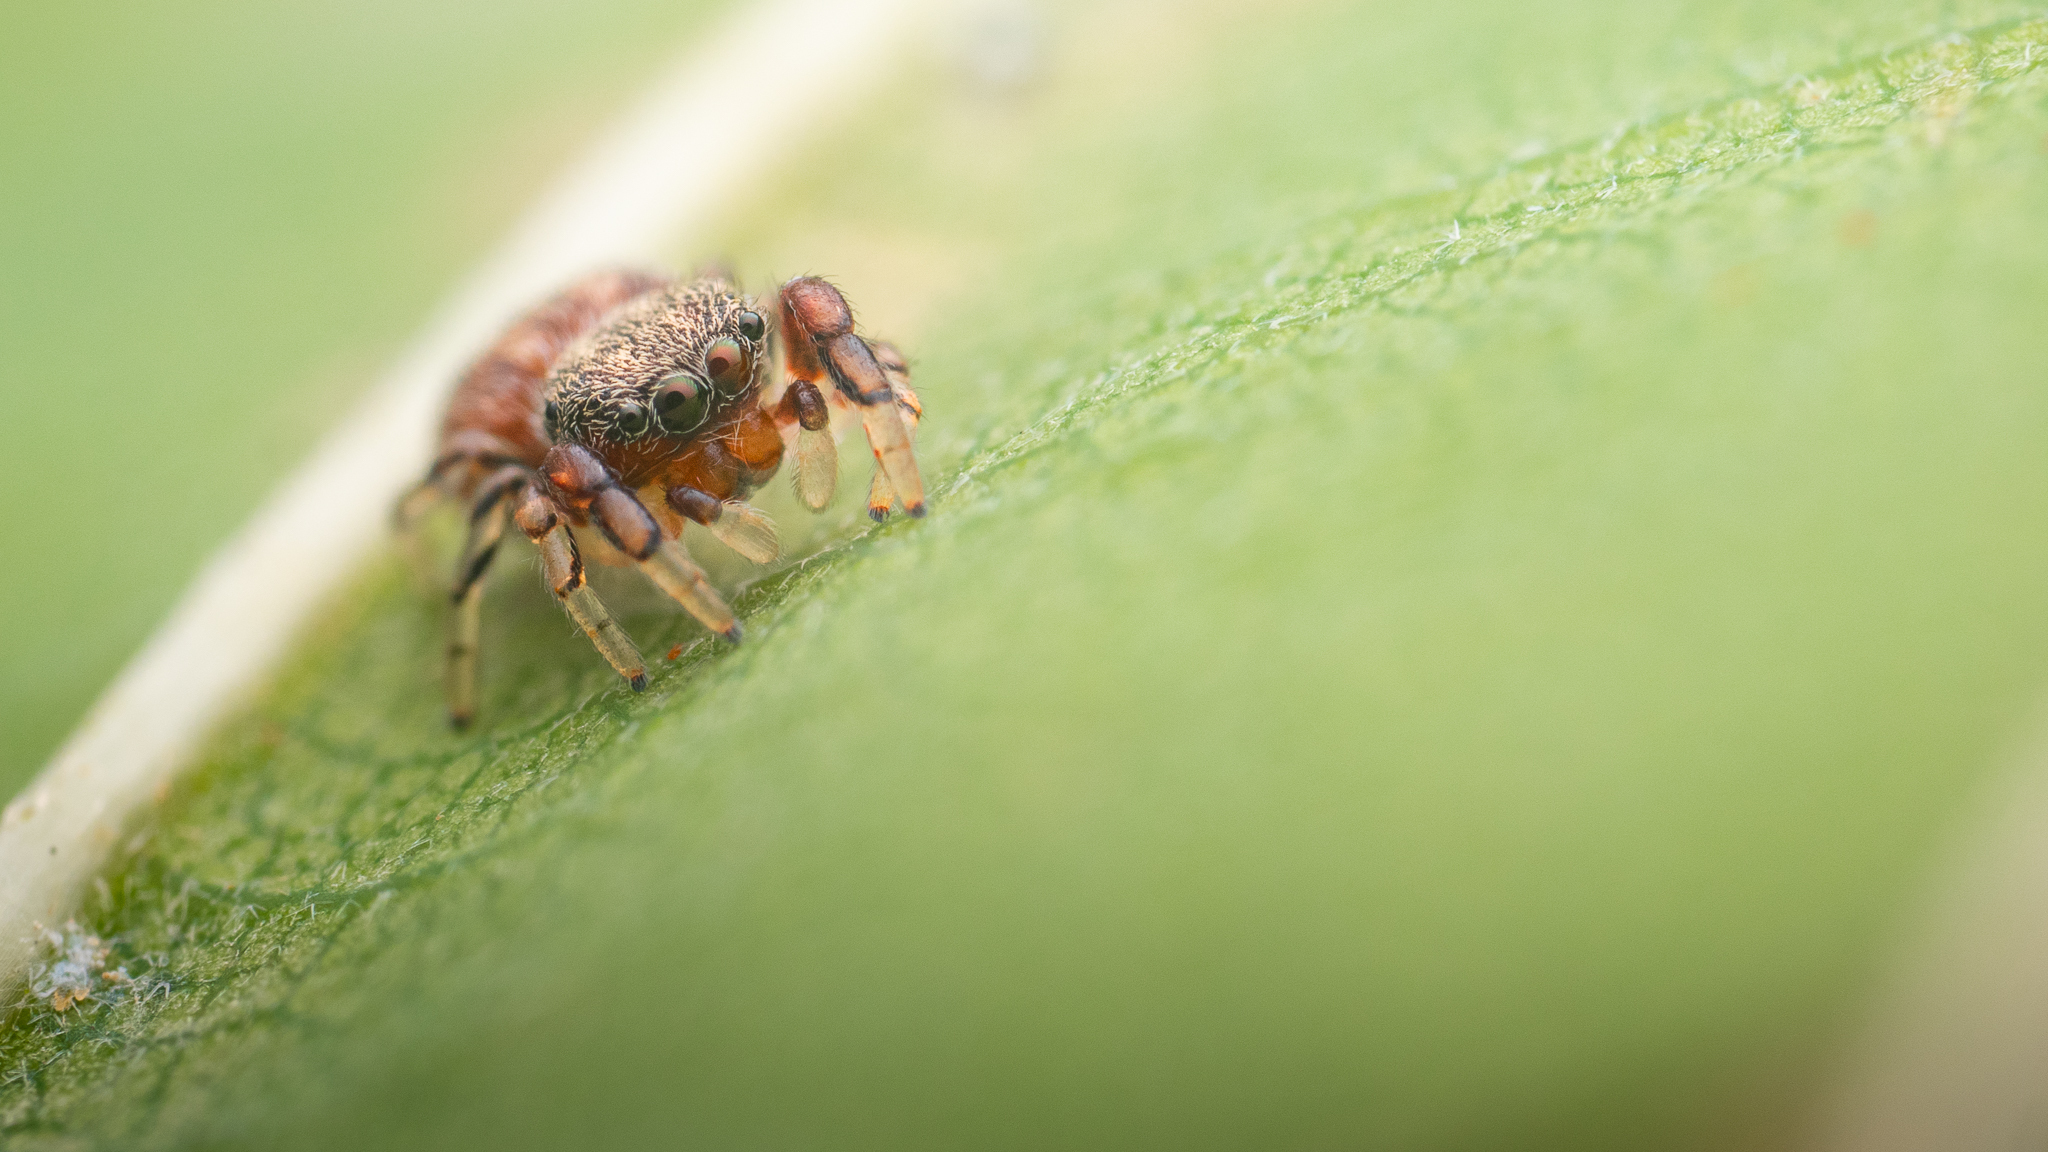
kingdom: Animalia
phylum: Arthropoda
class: Arachnida
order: Araneae
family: Salticidae
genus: Ballus
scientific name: Ballus chalybeius
